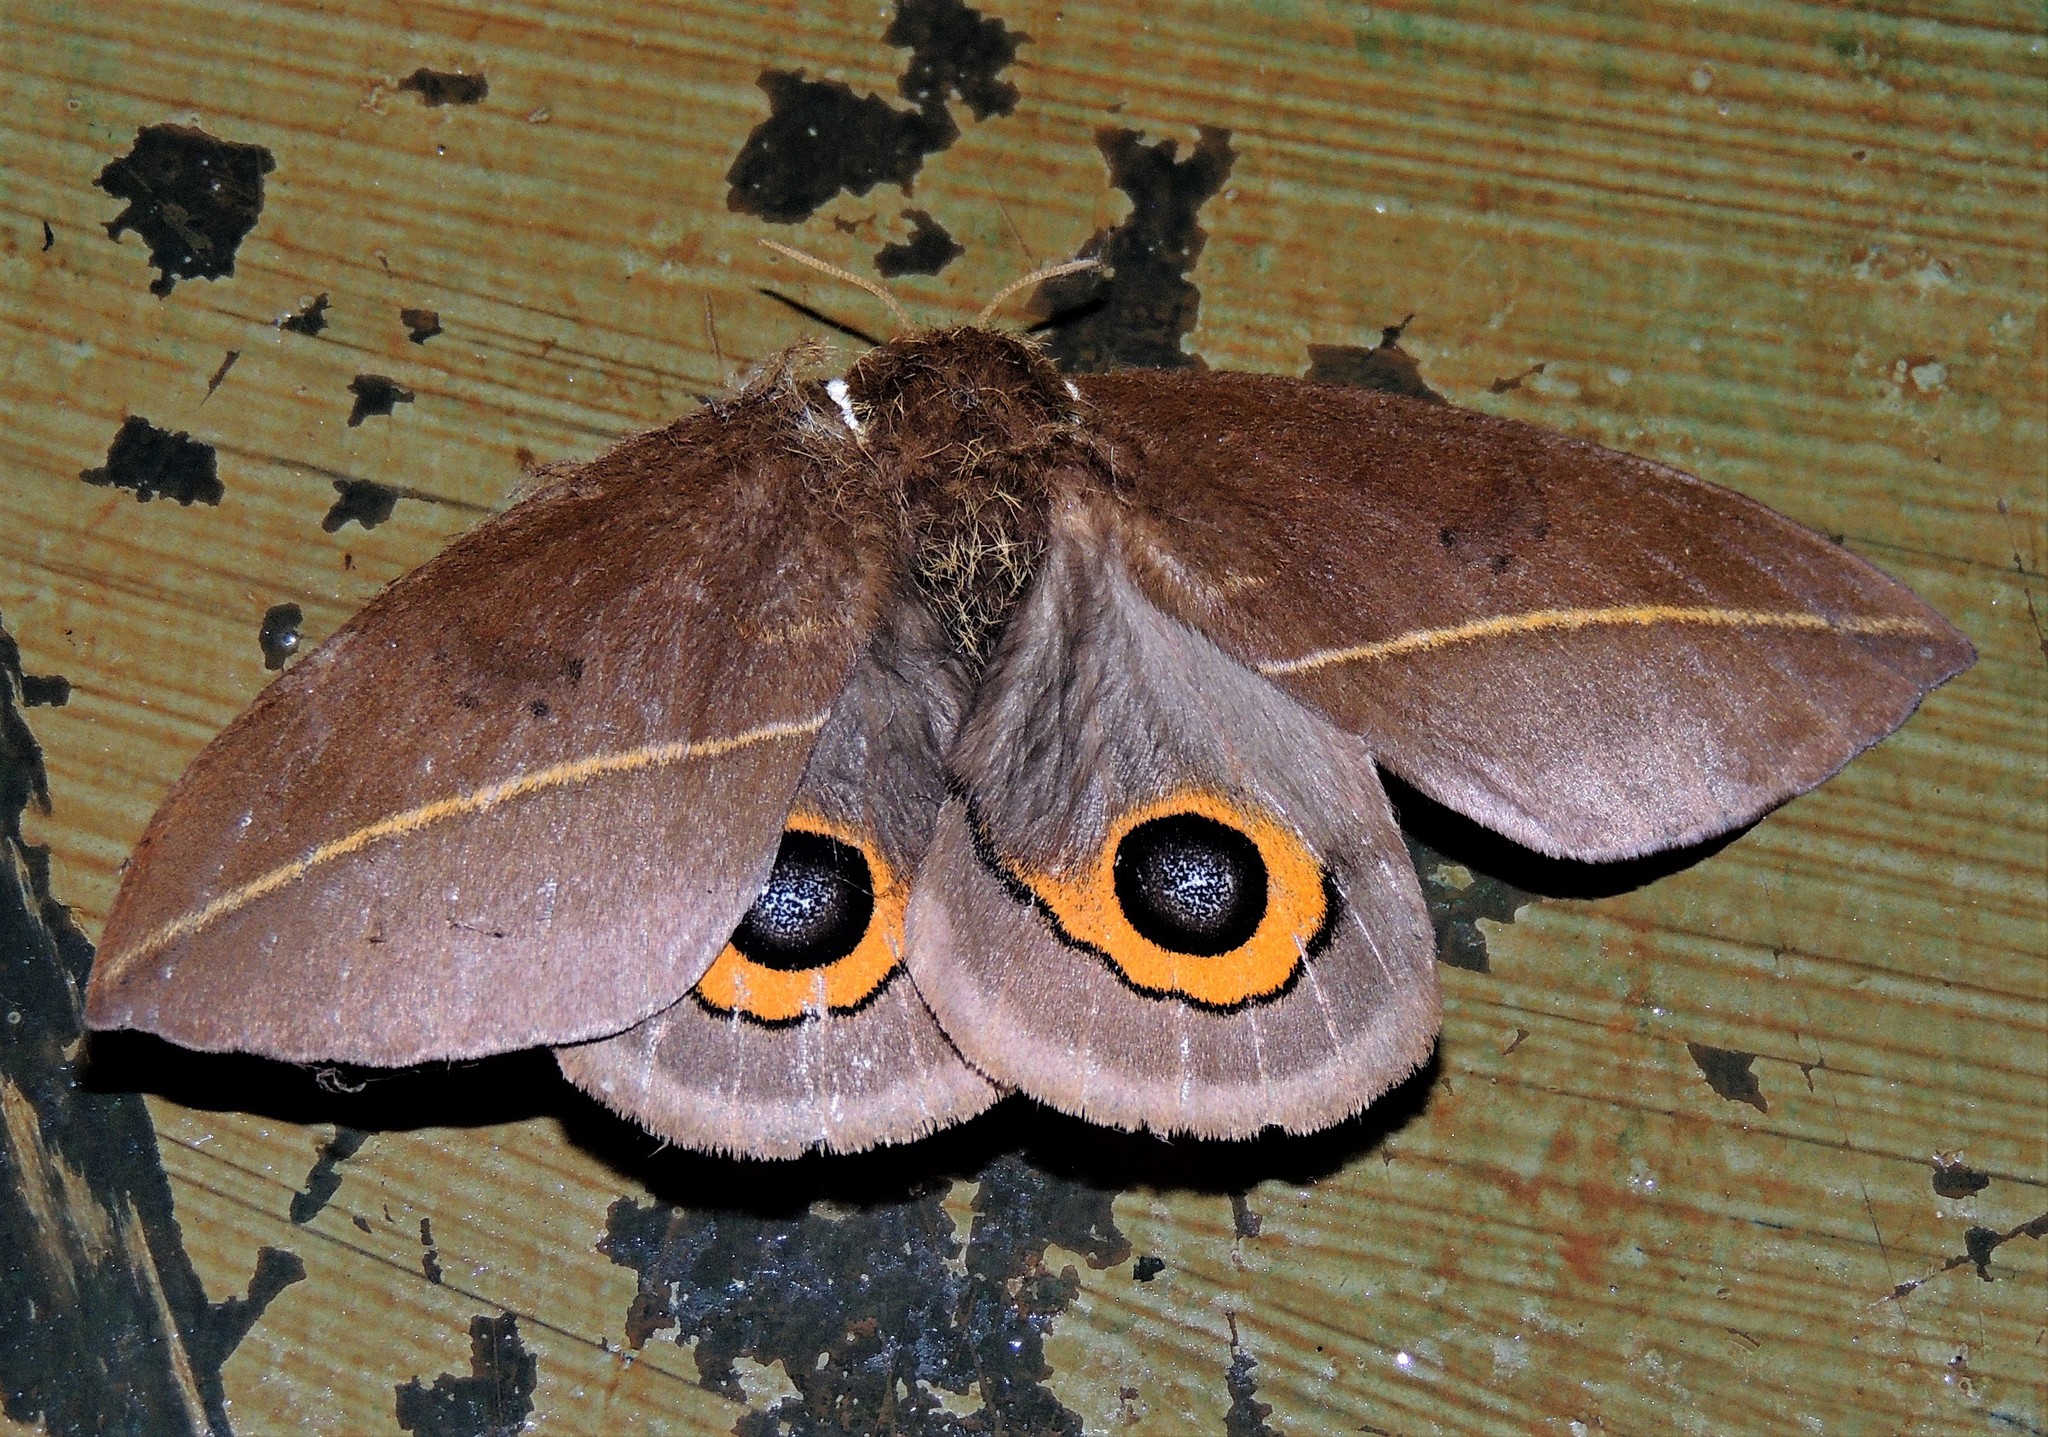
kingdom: Animalia
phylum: Arthropoda
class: Insecta
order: Lepidoptera
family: Saturniidae
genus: Automeris
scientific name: Automeris naranja
